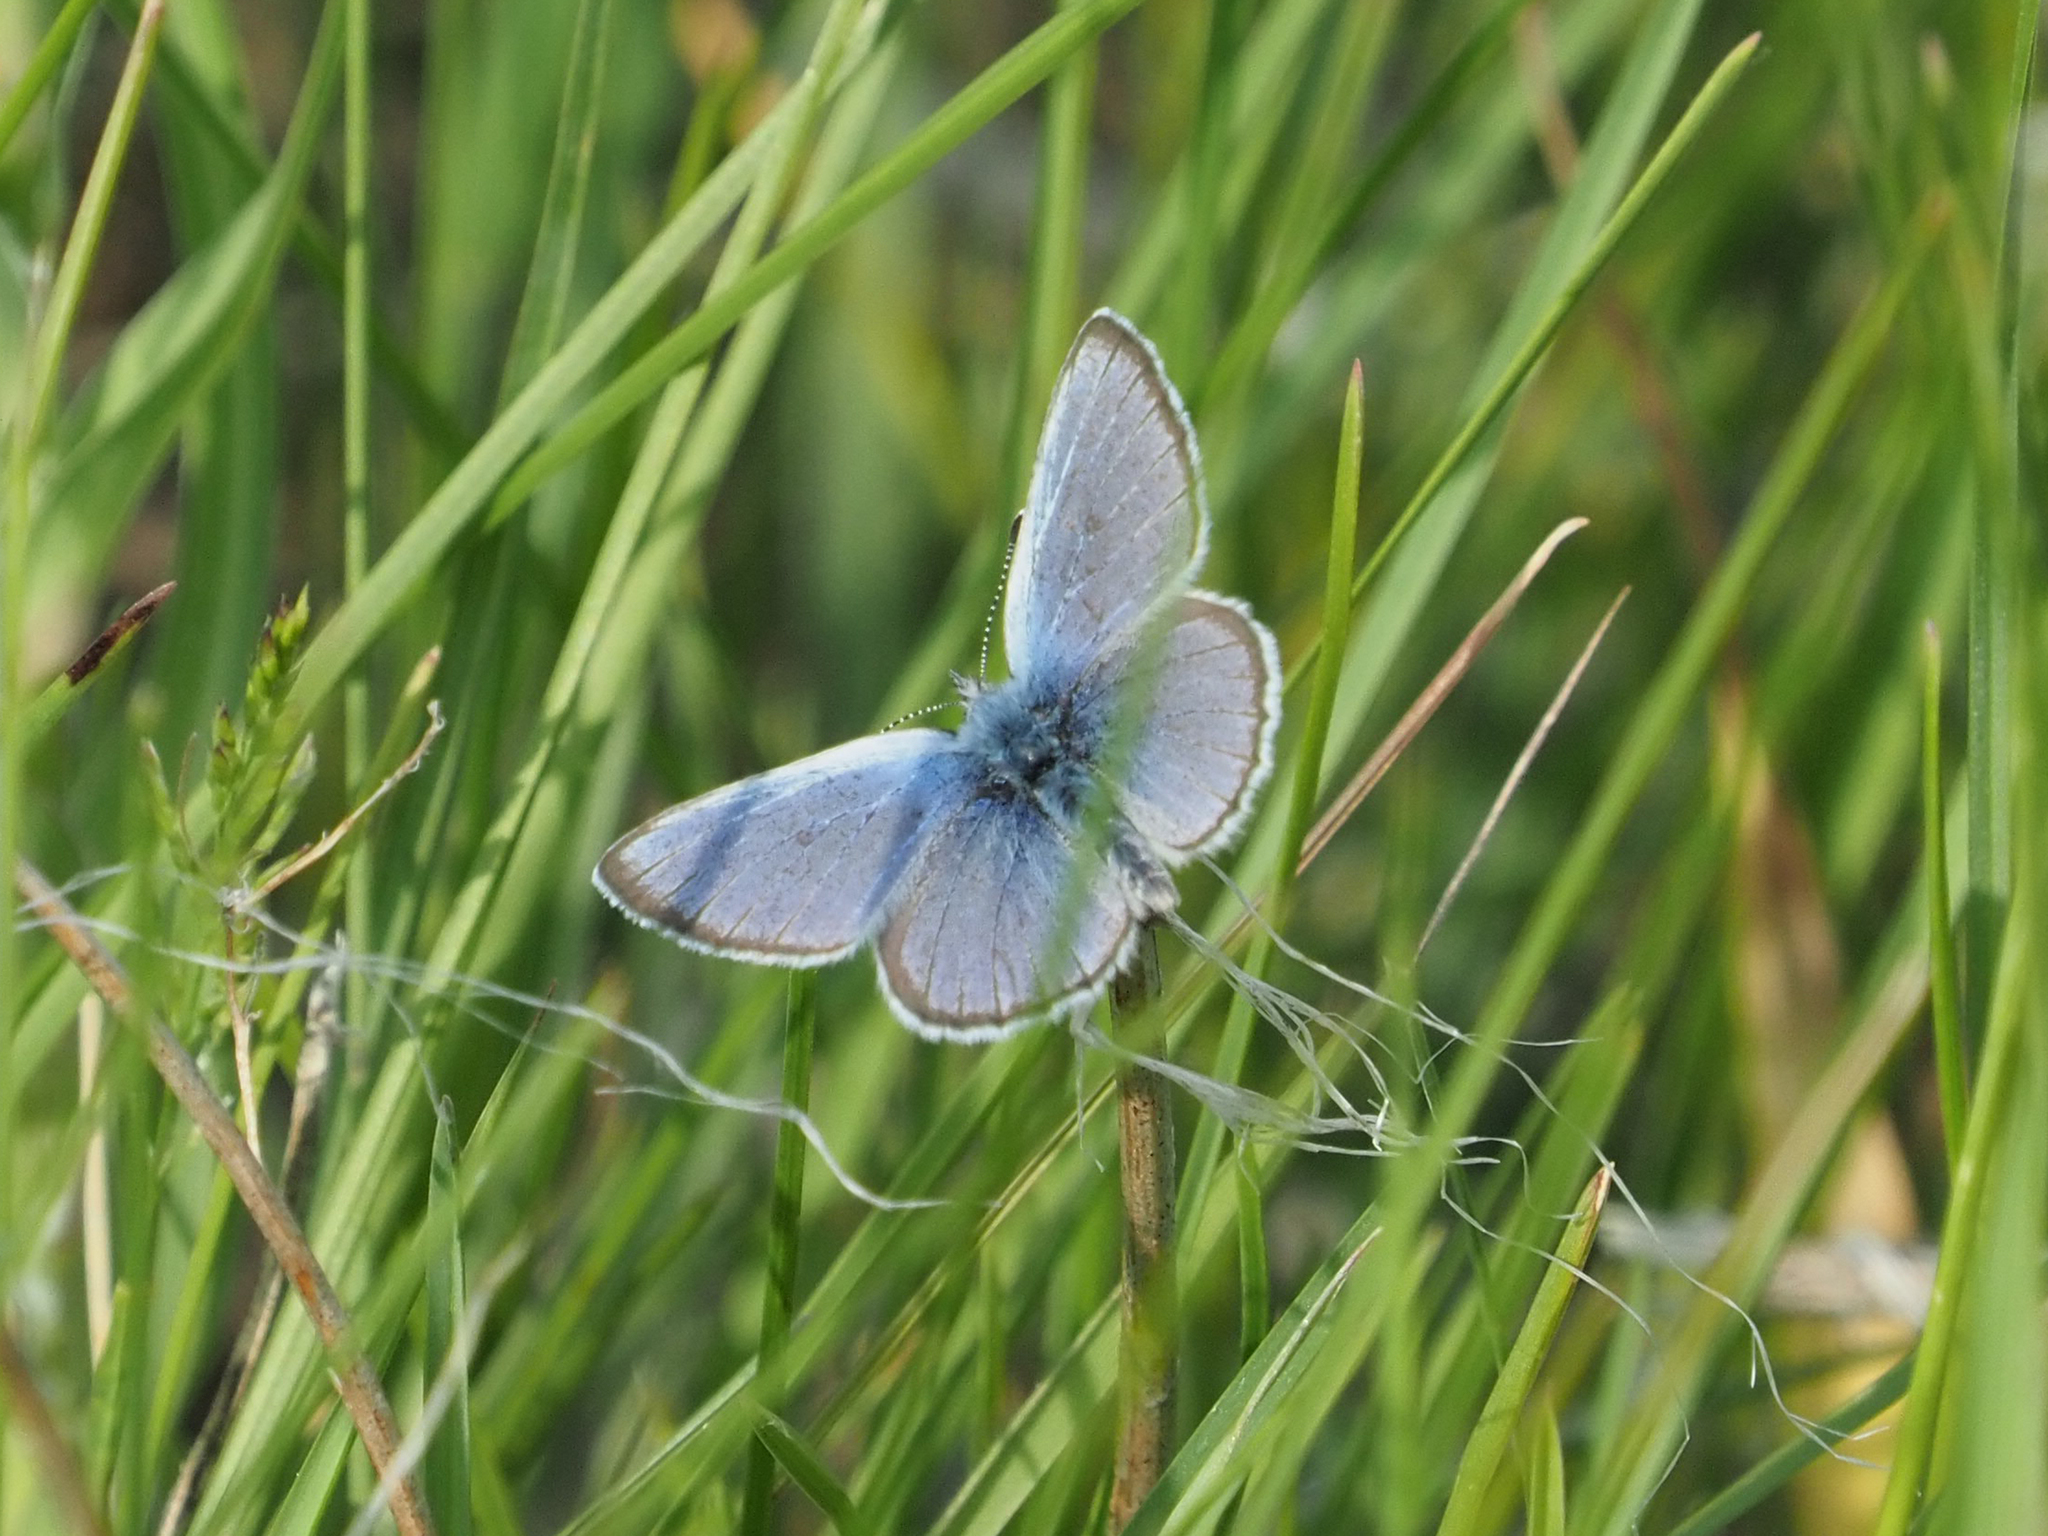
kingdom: Animalia
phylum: Arthropoda
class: Insecta
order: Lepidoptera
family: Lycaenidae
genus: Glaucopsyche
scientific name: Glaucopsyche lygdamus
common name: Silvery blue
